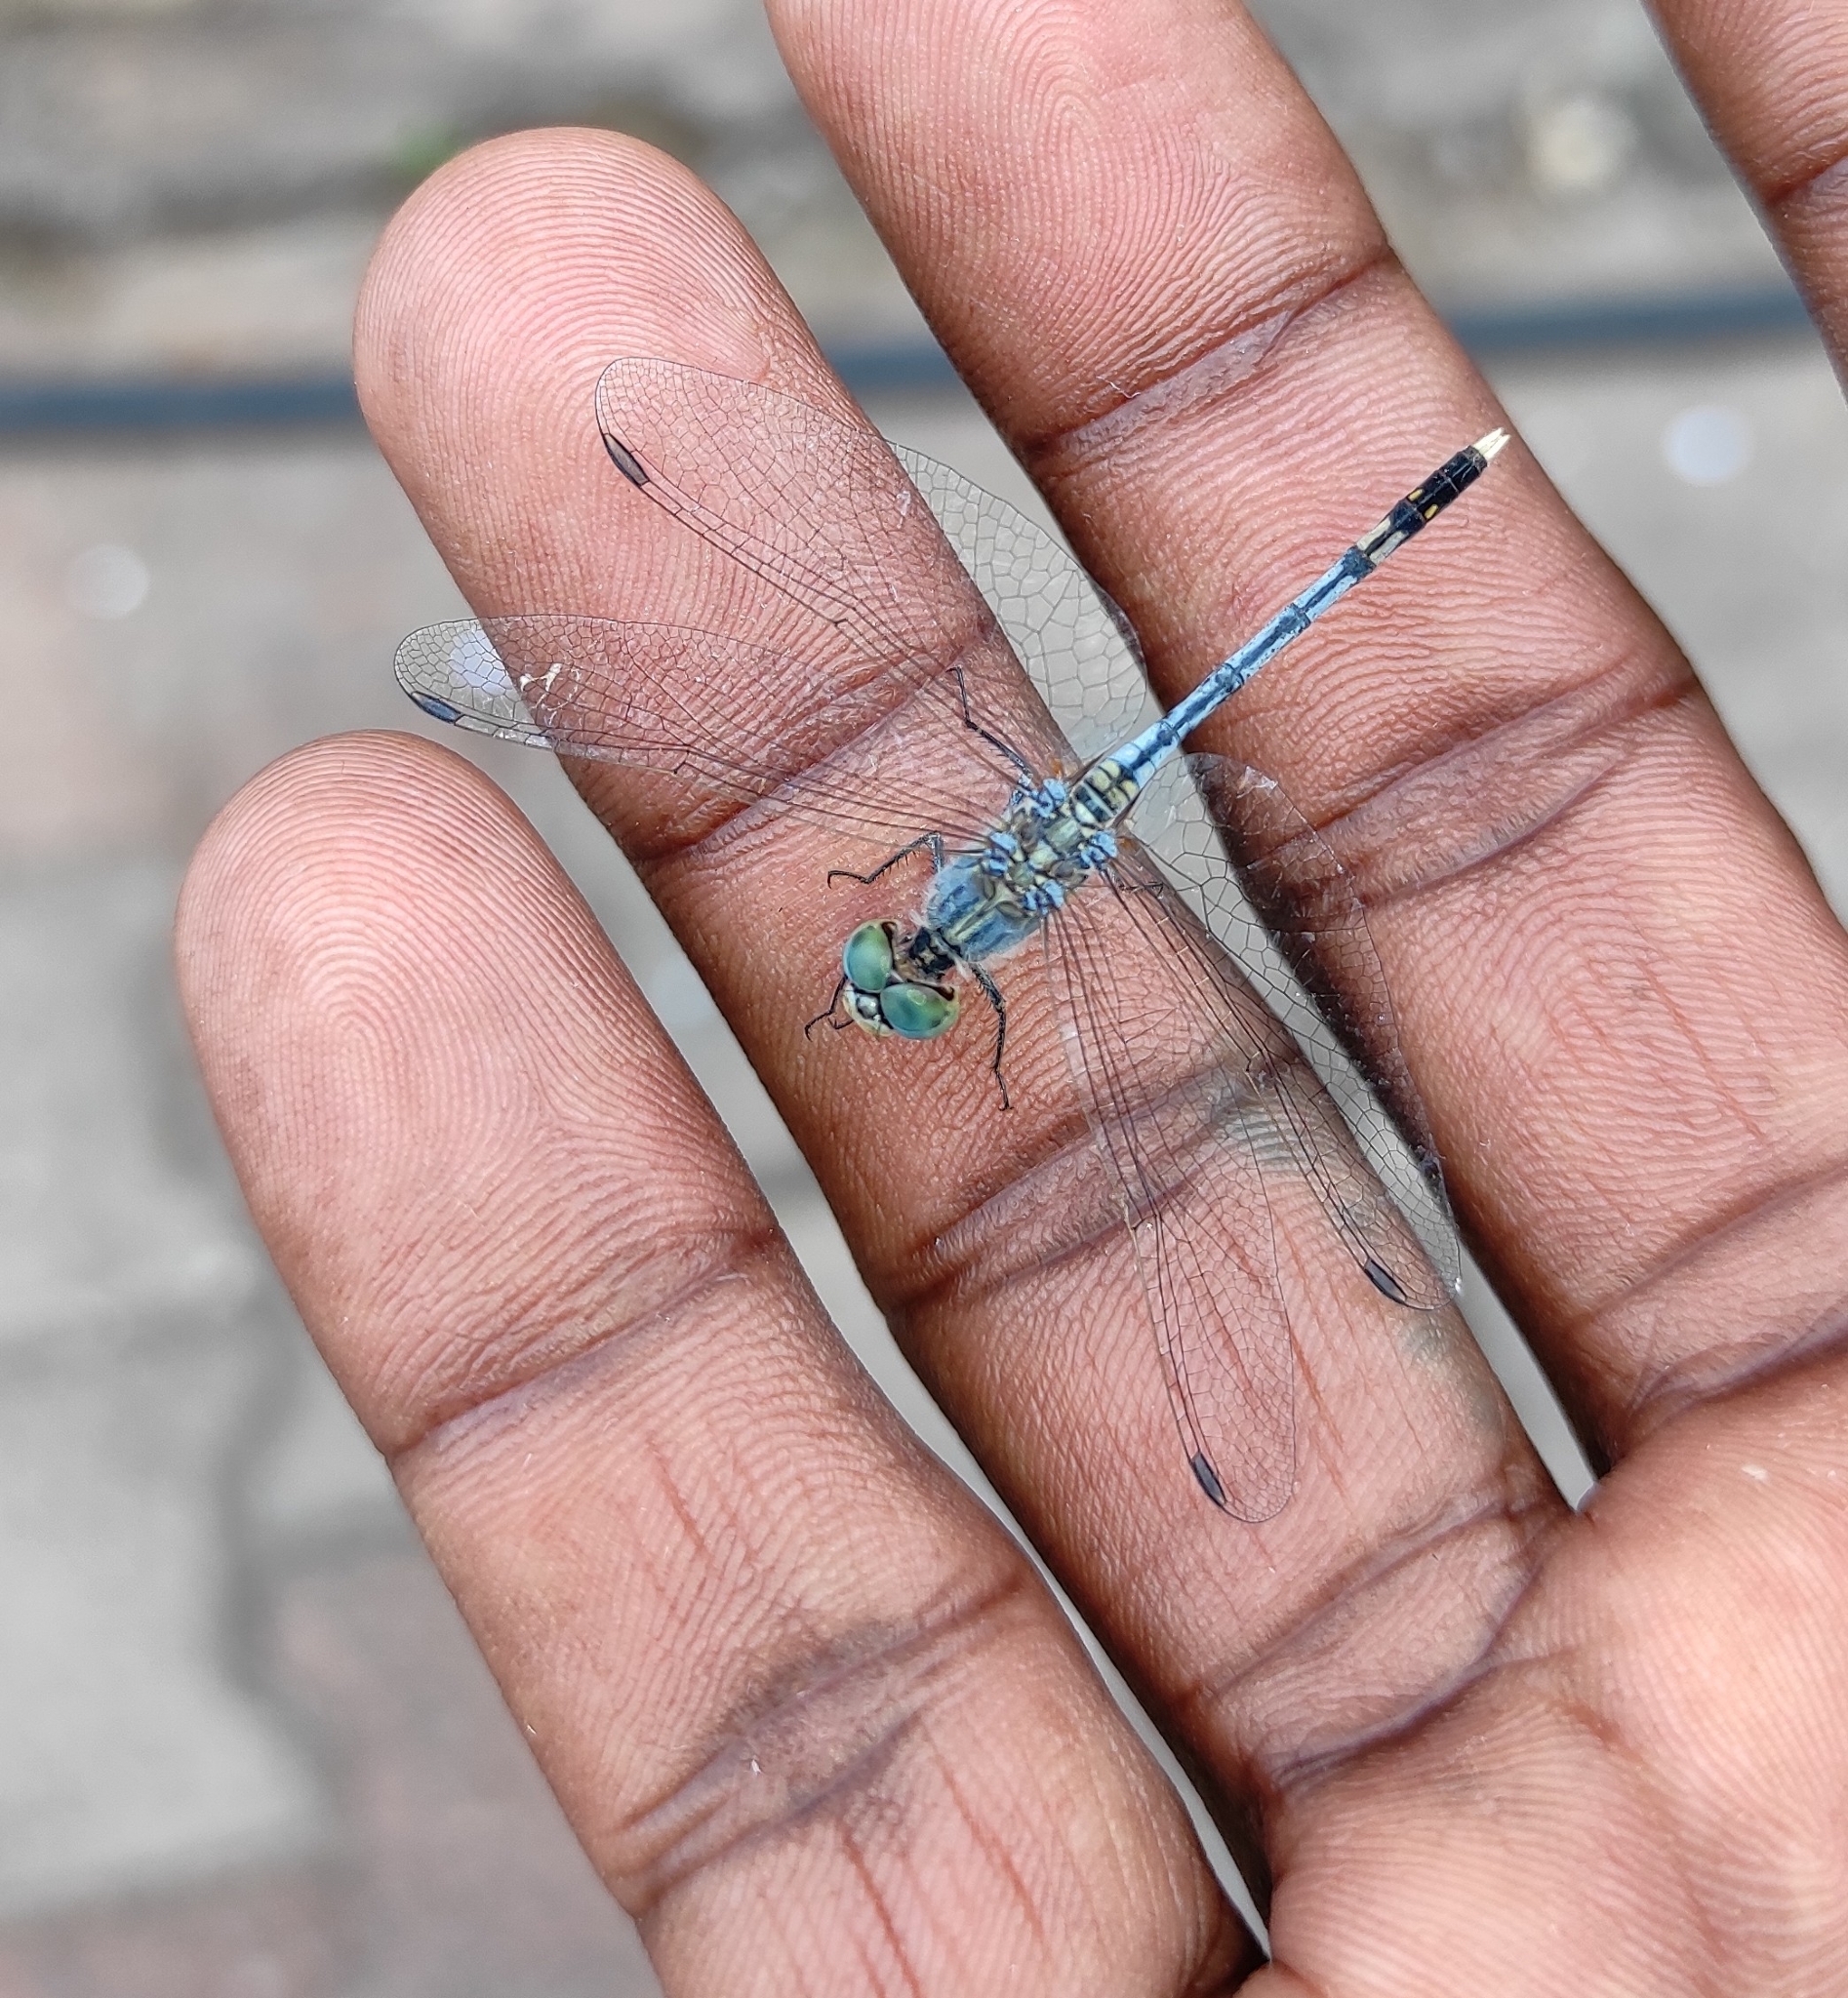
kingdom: Animalia
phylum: Arthropoda
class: Insecta
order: Odonata
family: Libellulidae
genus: Diplacodes
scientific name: Diplacodes trivialis
